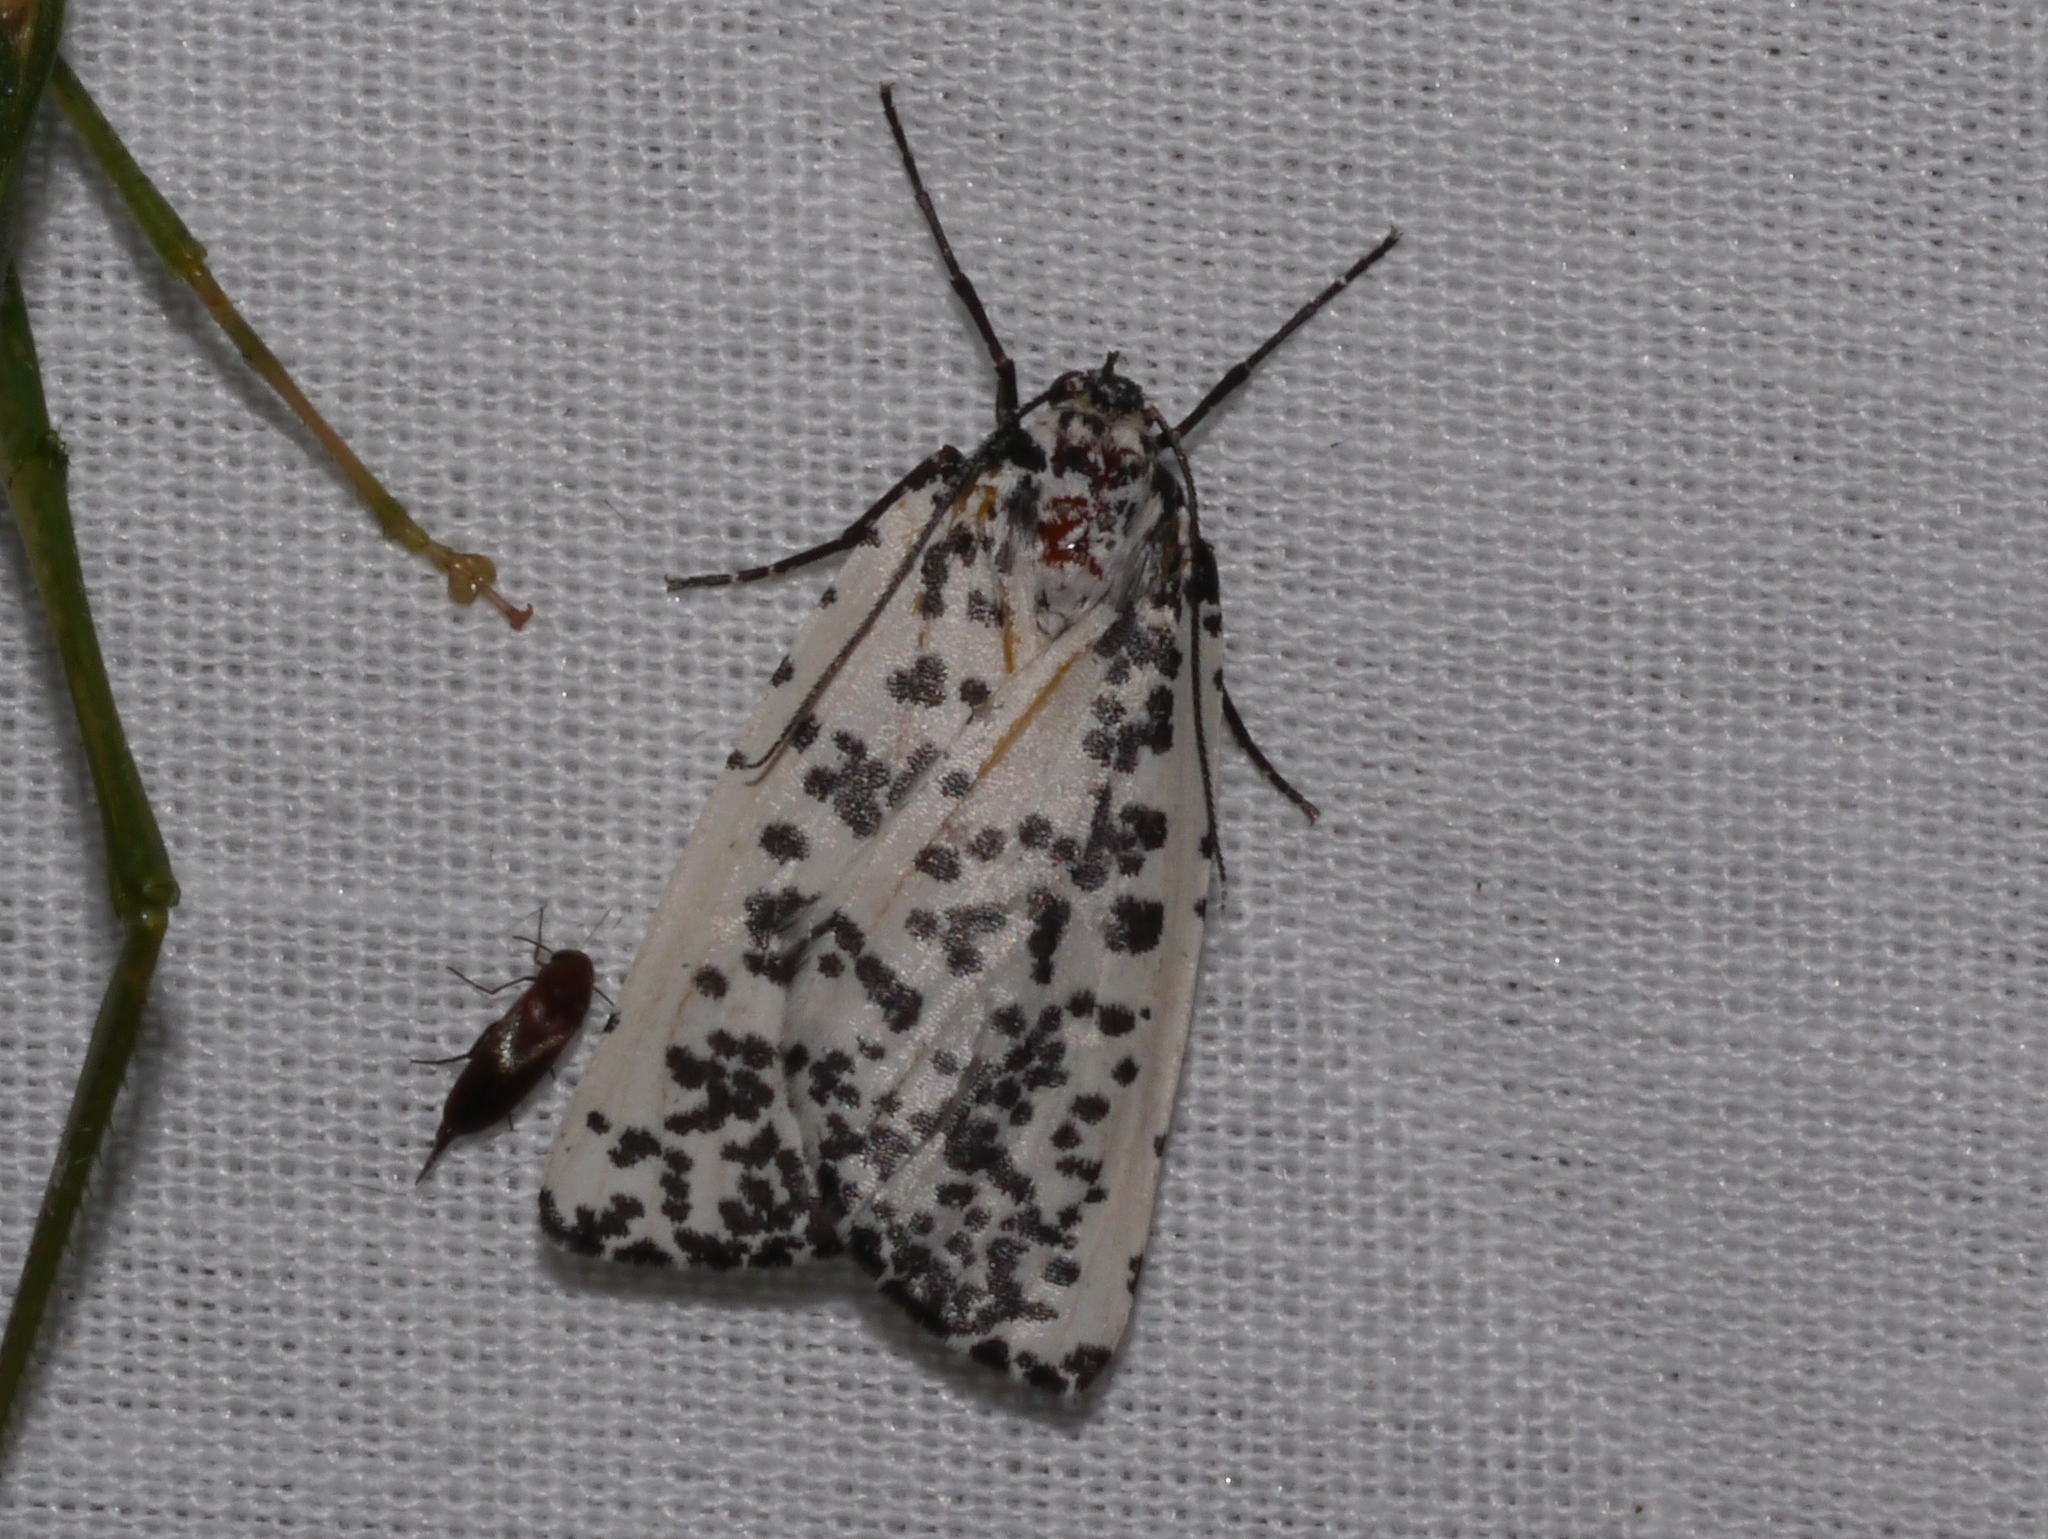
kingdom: Animalia
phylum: Arthropoda
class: Insecta
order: Lepidoptera
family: Geometridae
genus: Eucaterva
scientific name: Eucaterva variaria
